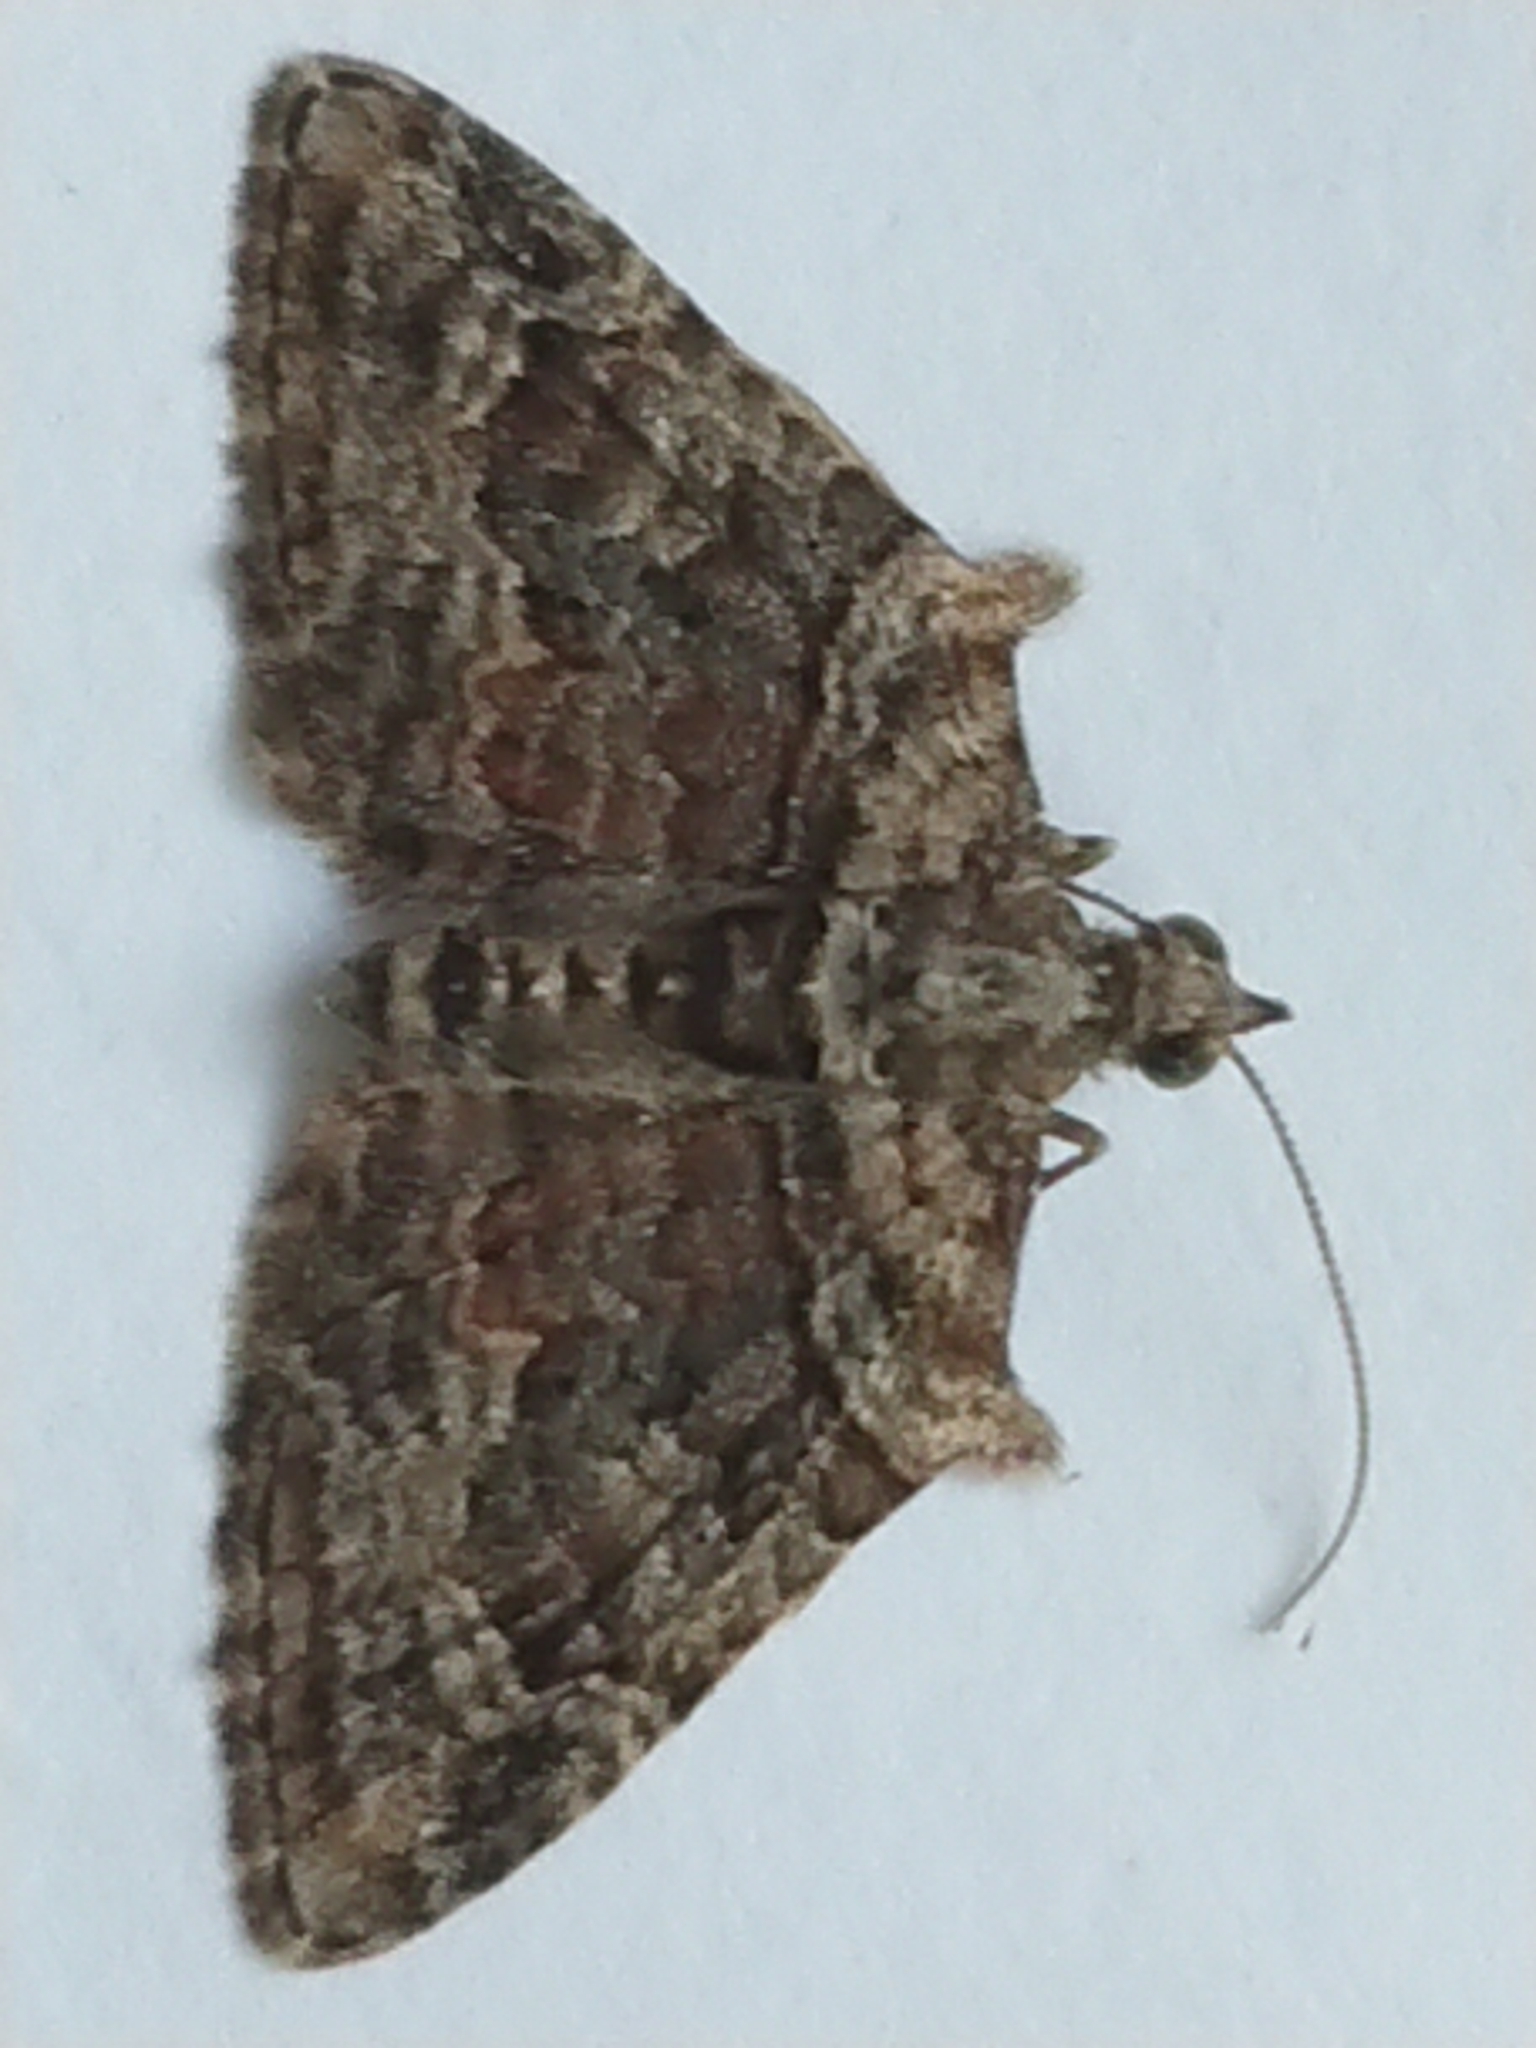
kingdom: Animalia
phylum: Arthropoda
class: Insecta
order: Lepidoptera
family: Geometridae
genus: Phrissogonus
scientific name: Phrissogonus laticostata
